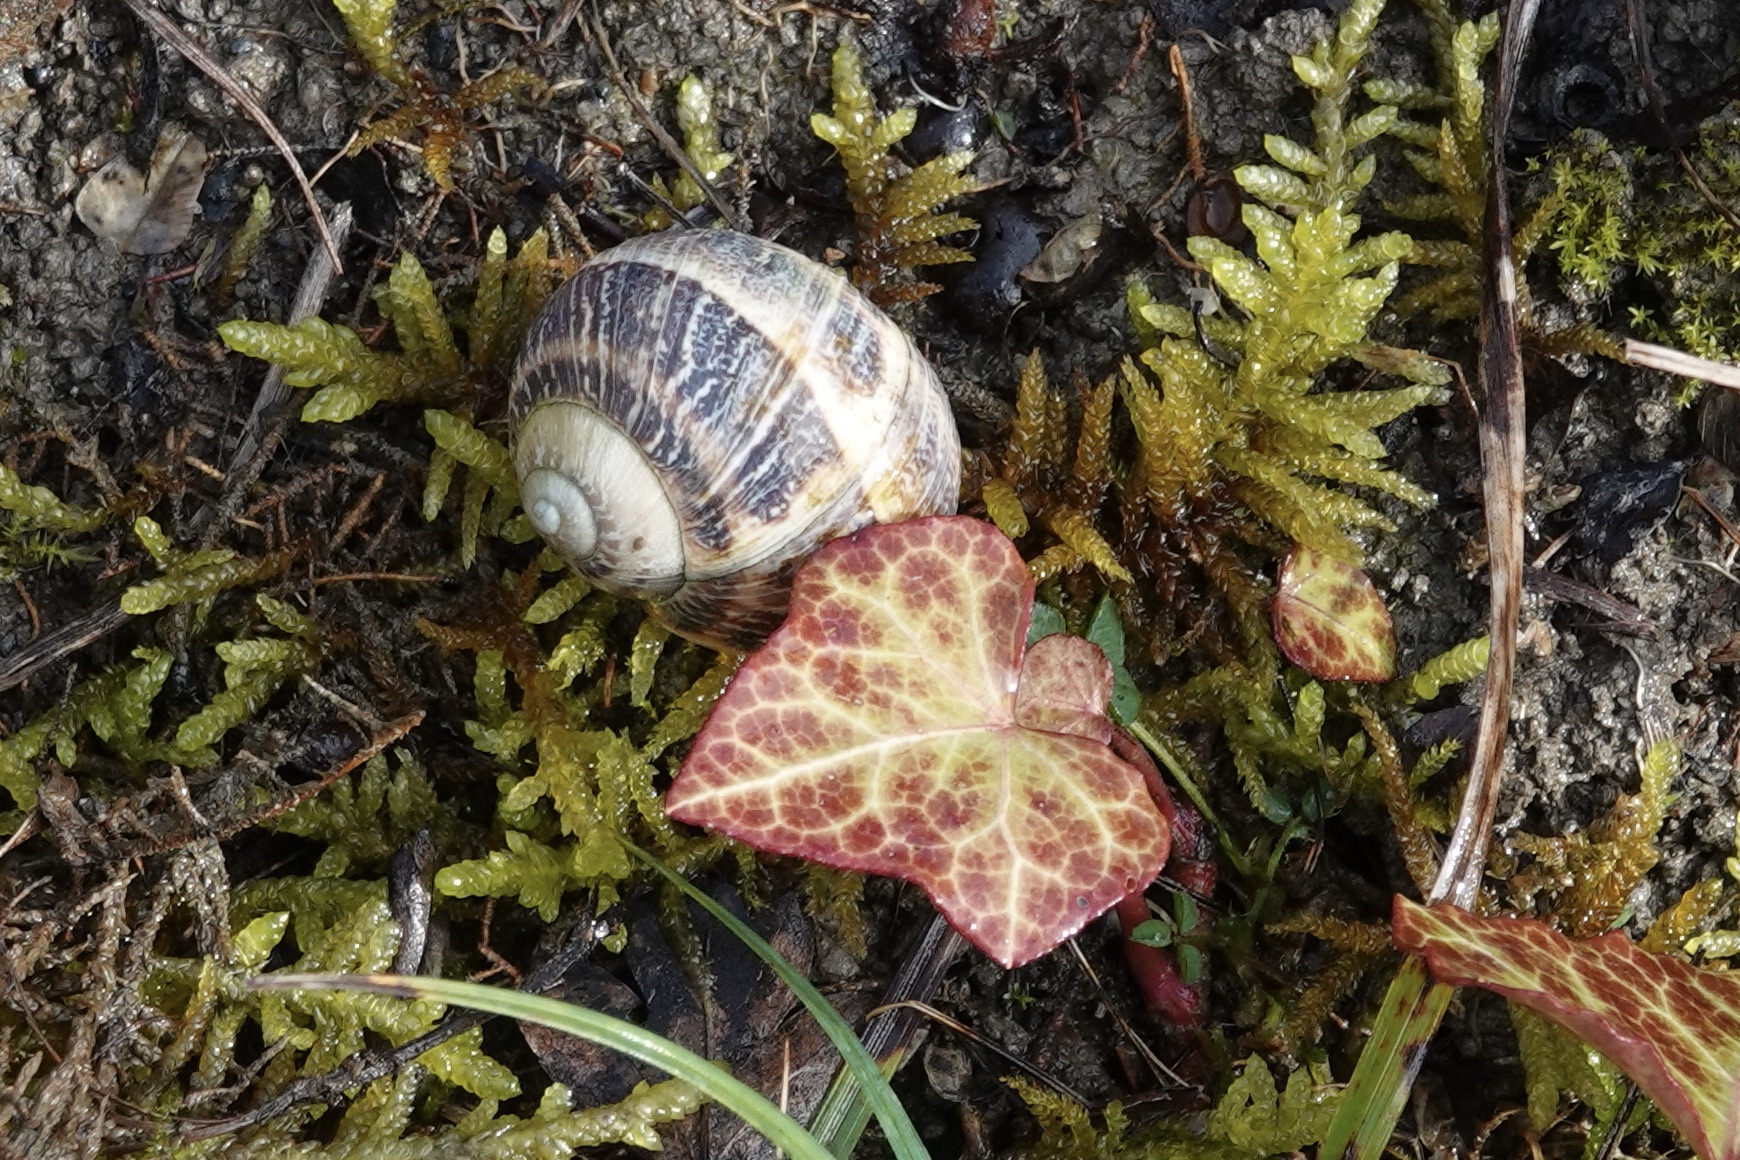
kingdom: Animalia
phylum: Mollusca
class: Gastropoda
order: Stylommatophora
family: Helicidae
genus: Cornu
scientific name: Cornu aspersum
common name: Brown garden snail
